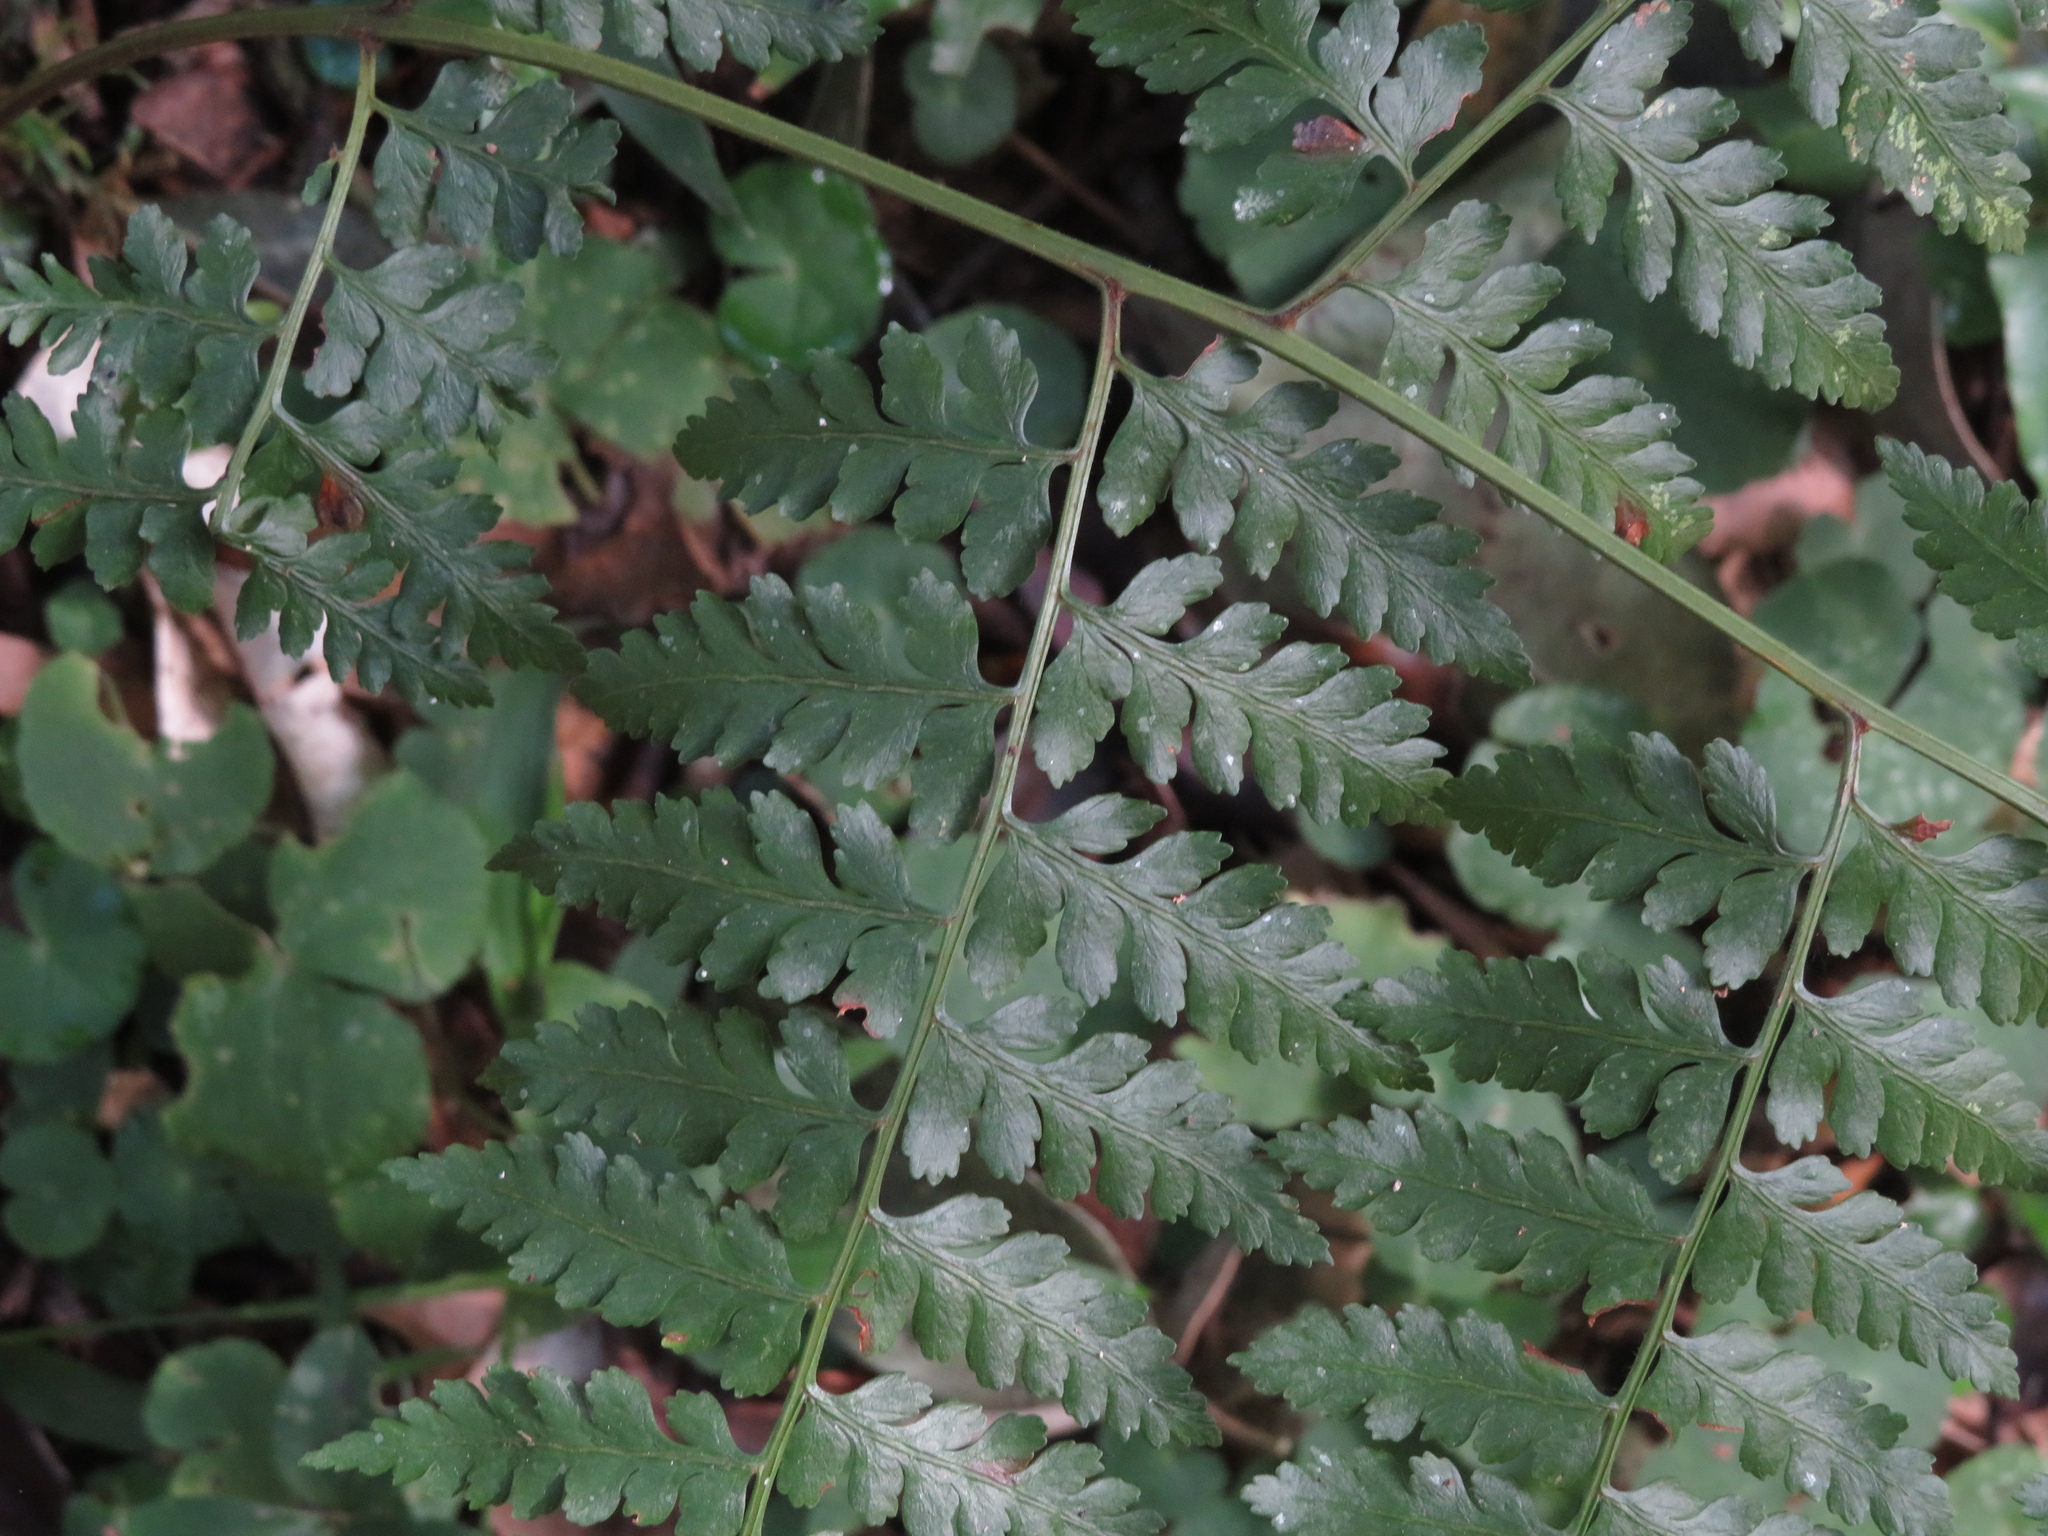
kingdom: Plantae
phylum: Tracheophyta
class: Polypodiopsida
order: Polypodiales
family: Dennstaedtiaceae
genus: Mucura
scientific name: Mucura globulifera
